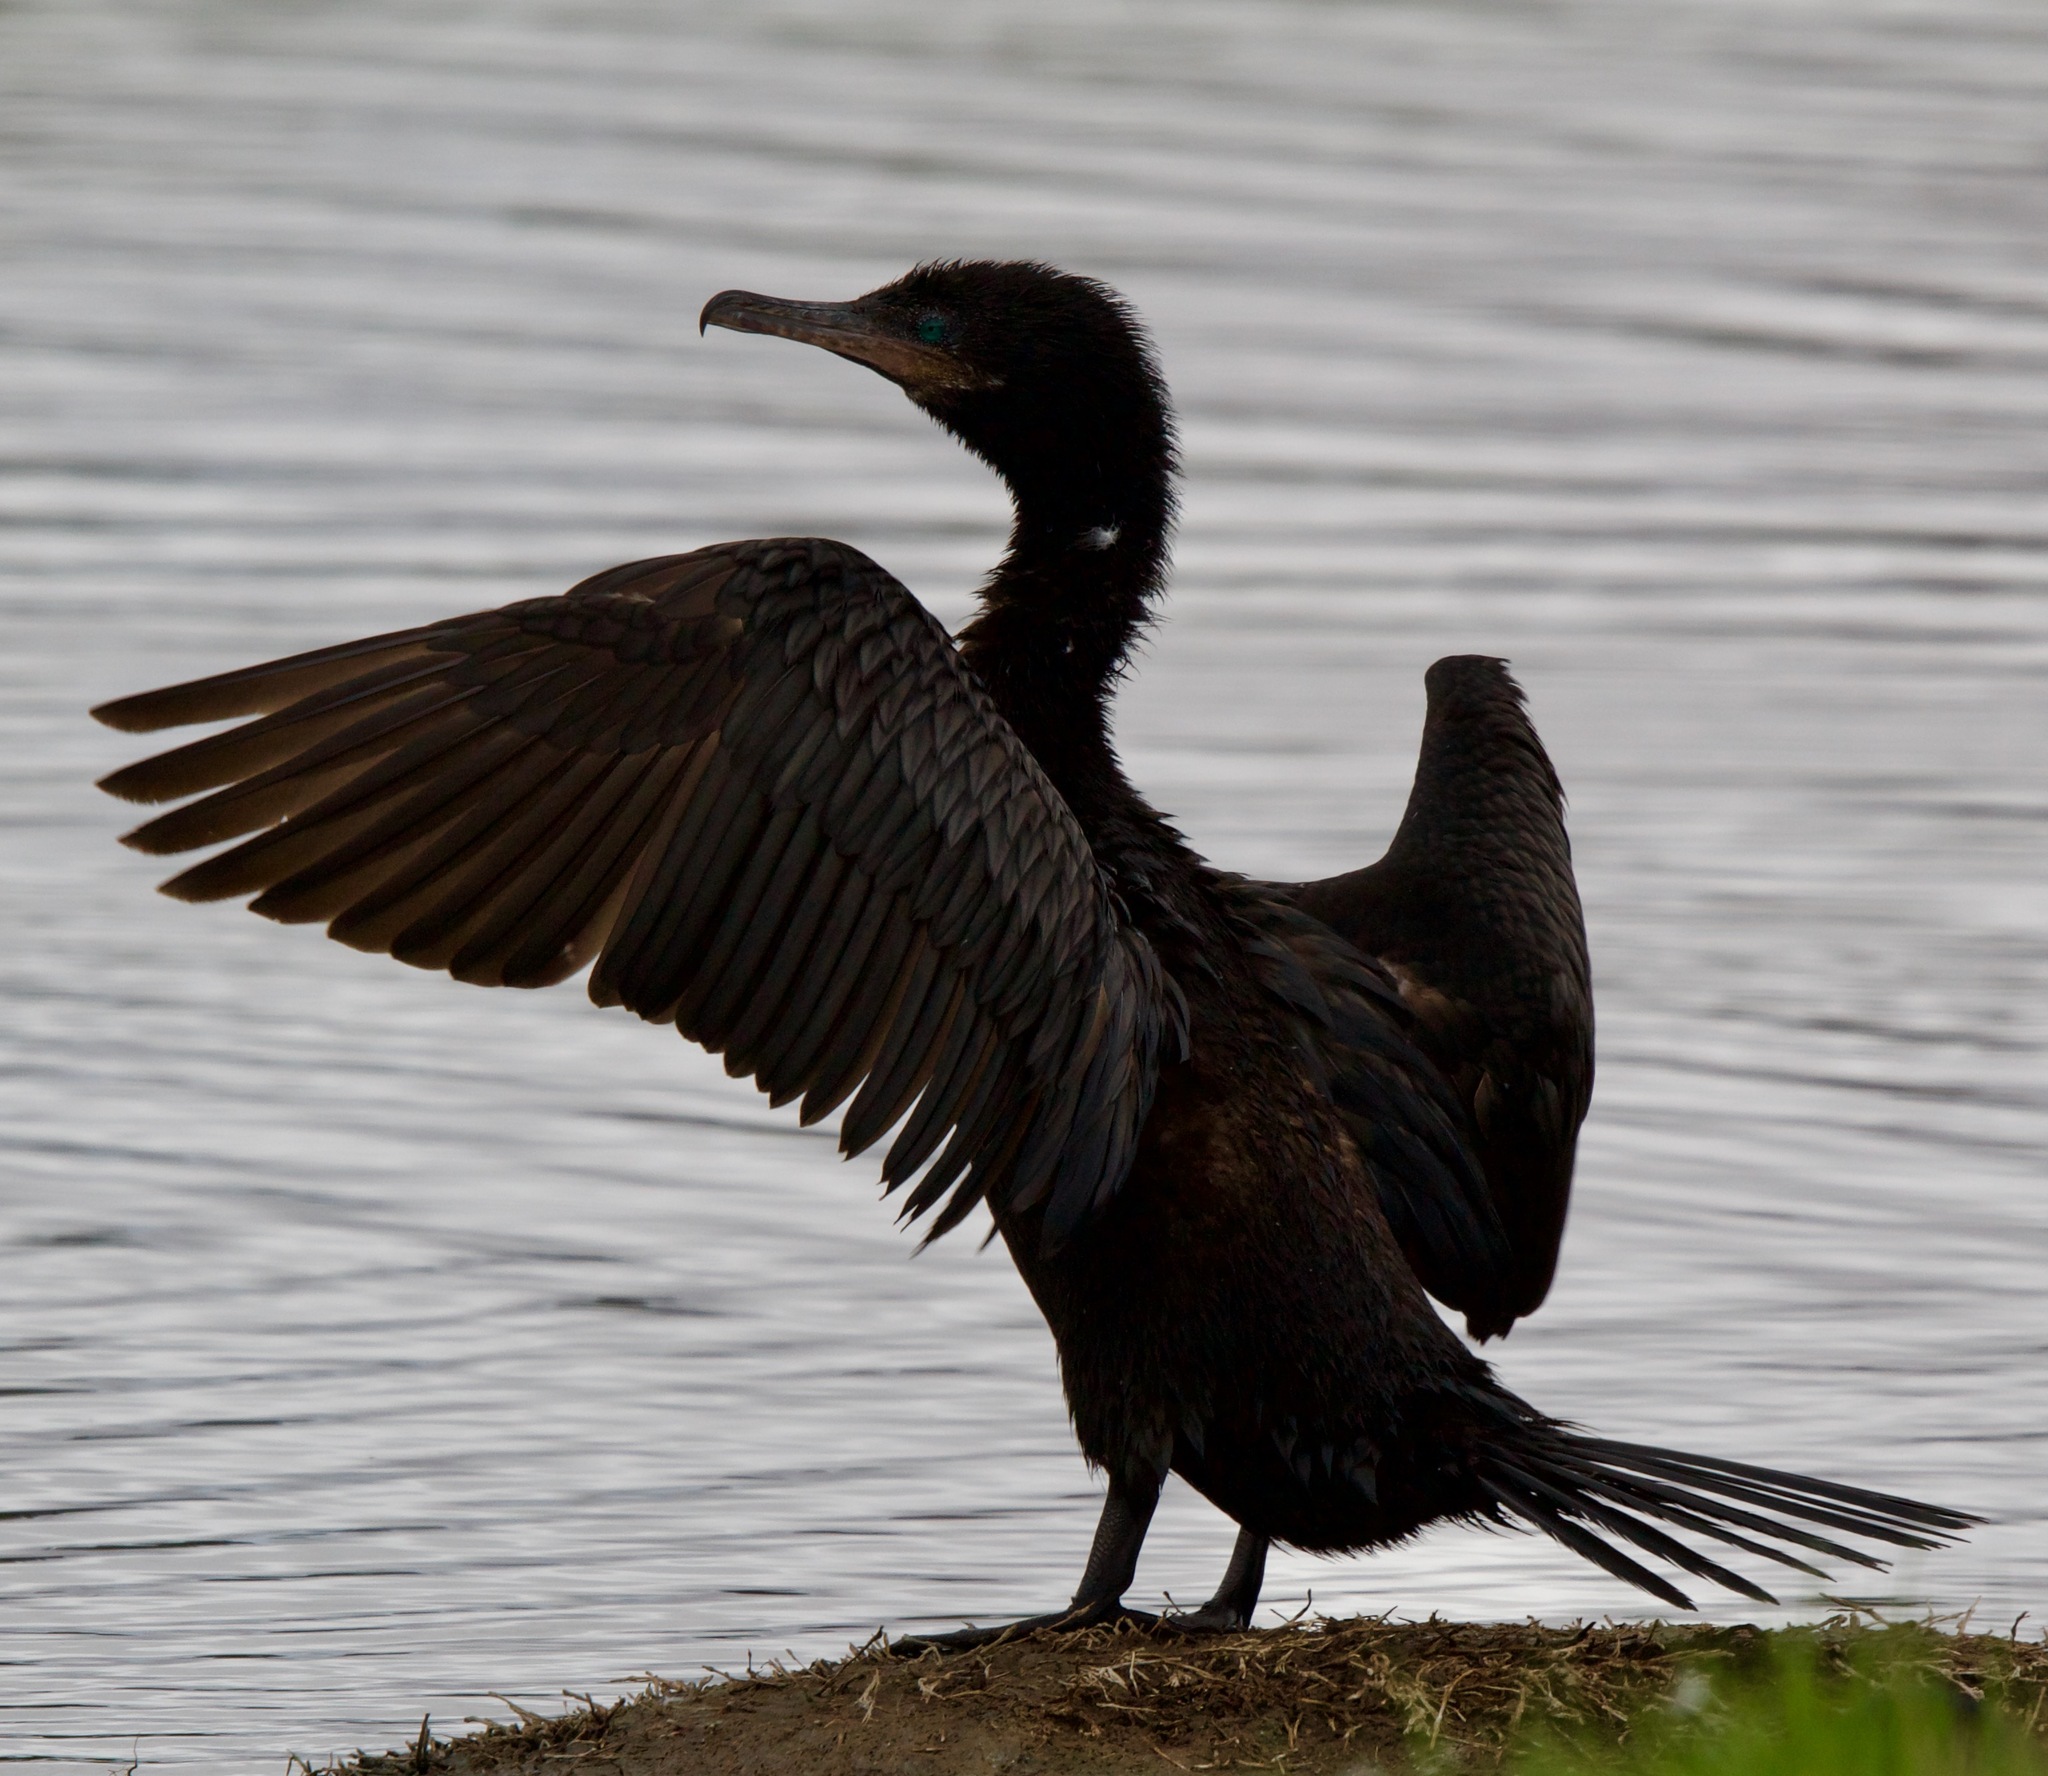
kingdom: Animalia
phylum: Chordata
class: Aves
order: Suliformes
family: Phalacrocoracidae
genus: Phalacrocorax
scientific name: Phalacrocorax brasilianus
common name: Neotropic cormorant
